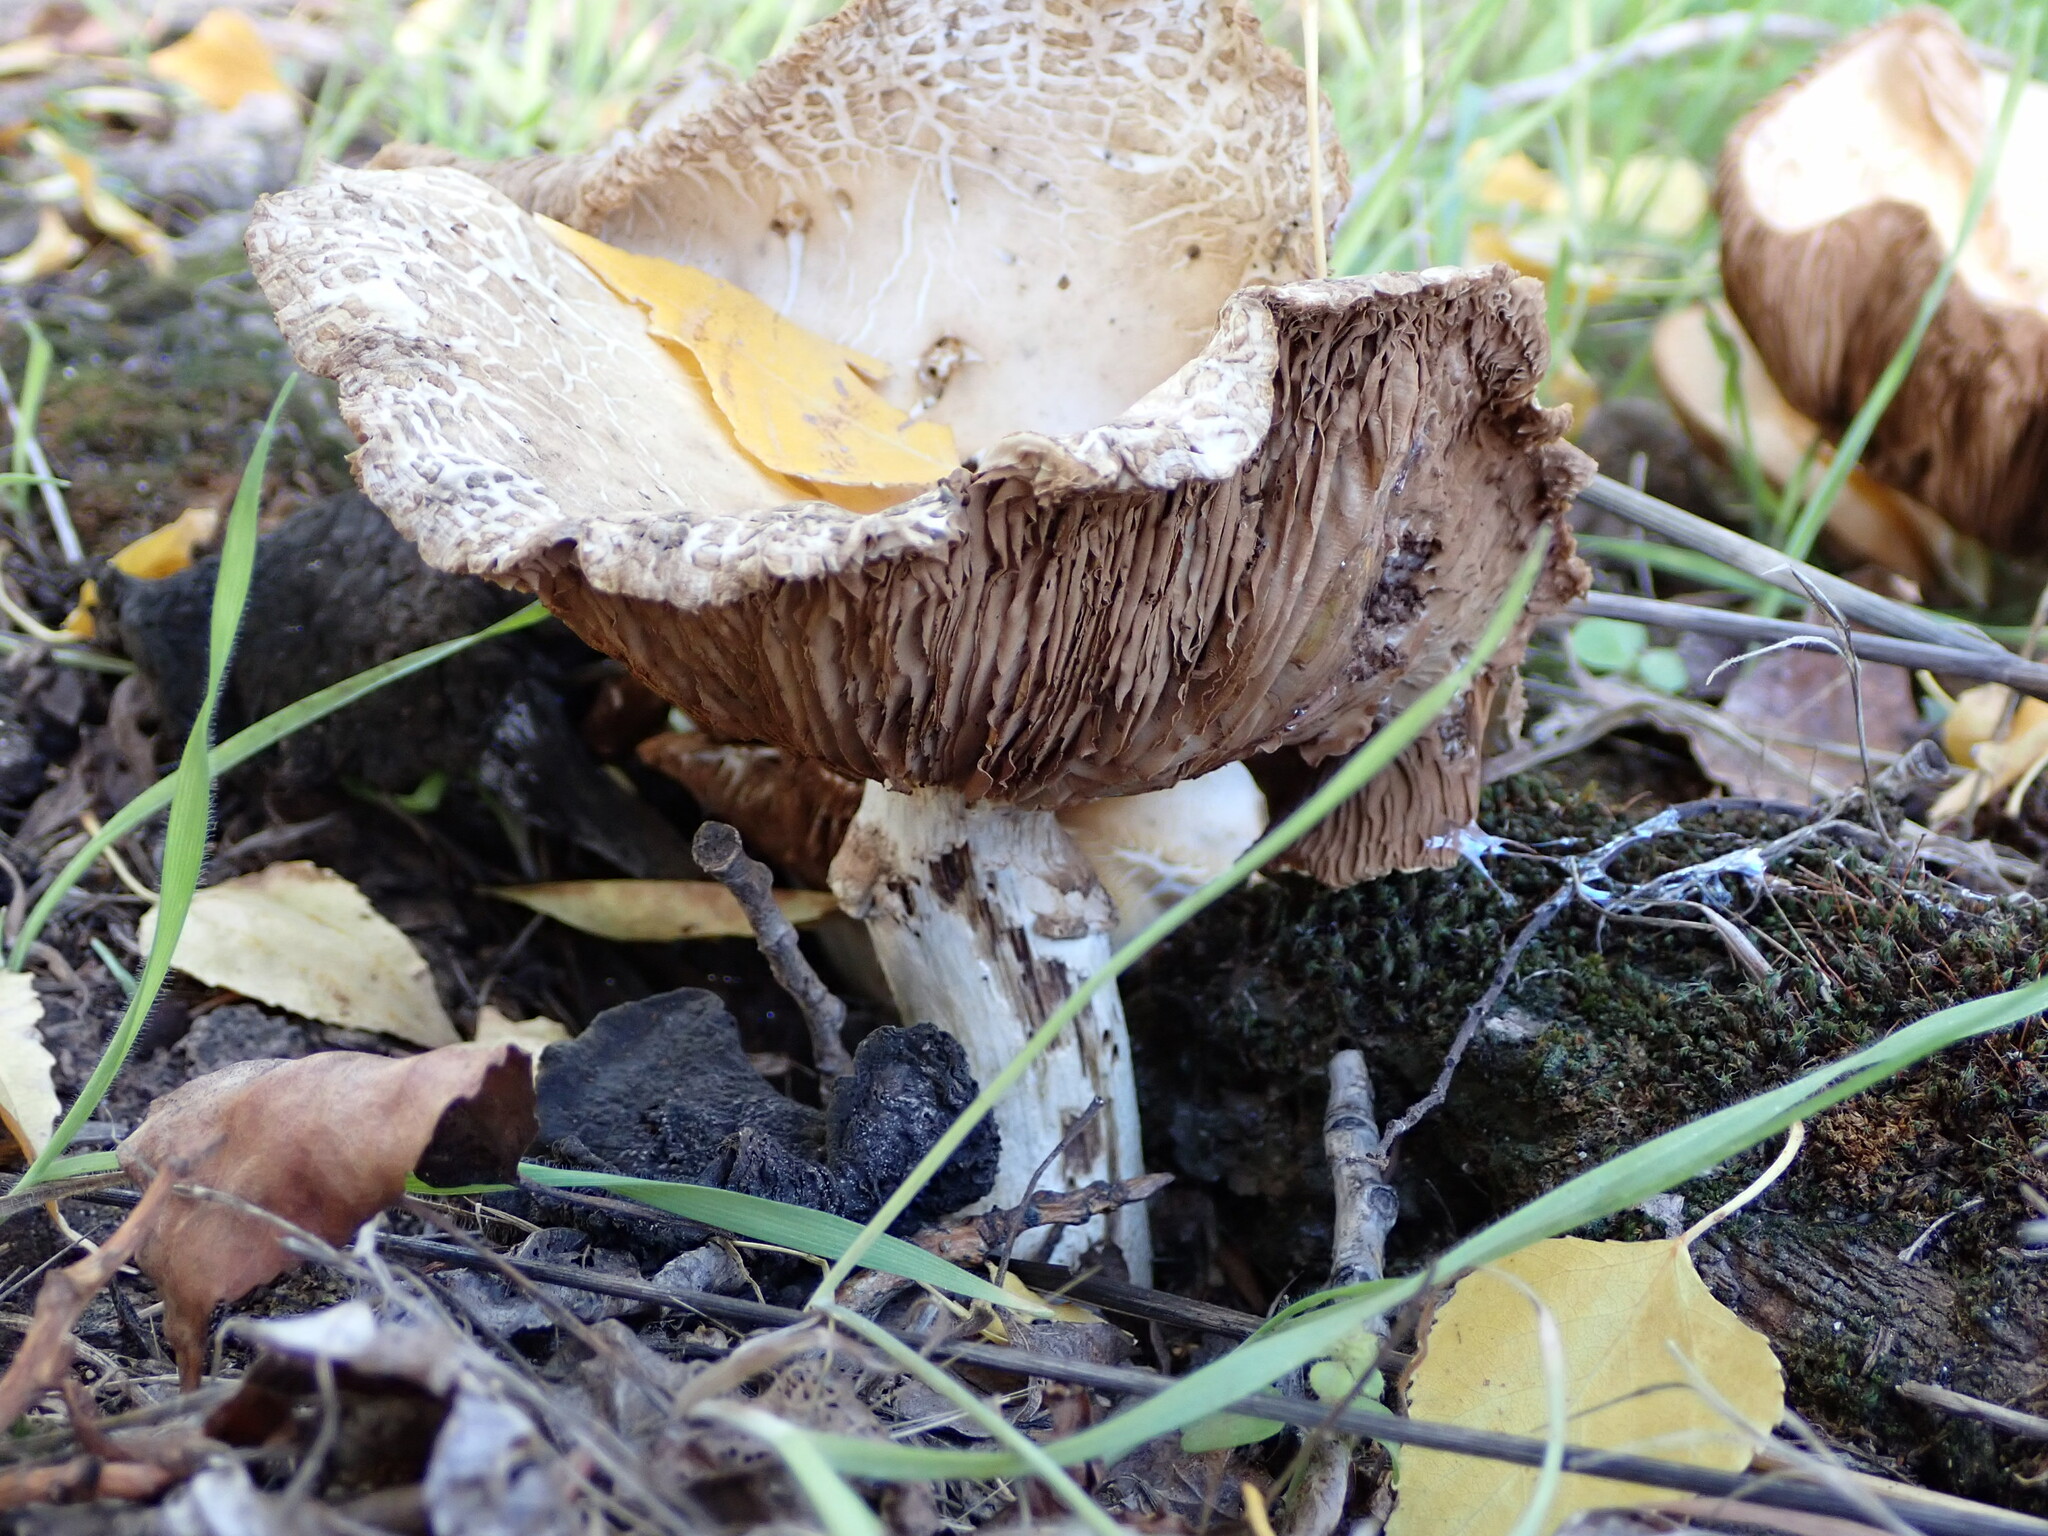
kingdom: Fungi
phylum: Basidiomycota
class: Agaricomycetes
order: Agaricales
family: Tubariaceae
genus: Cyclocybe
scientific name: Cyclocybe cylindracea
